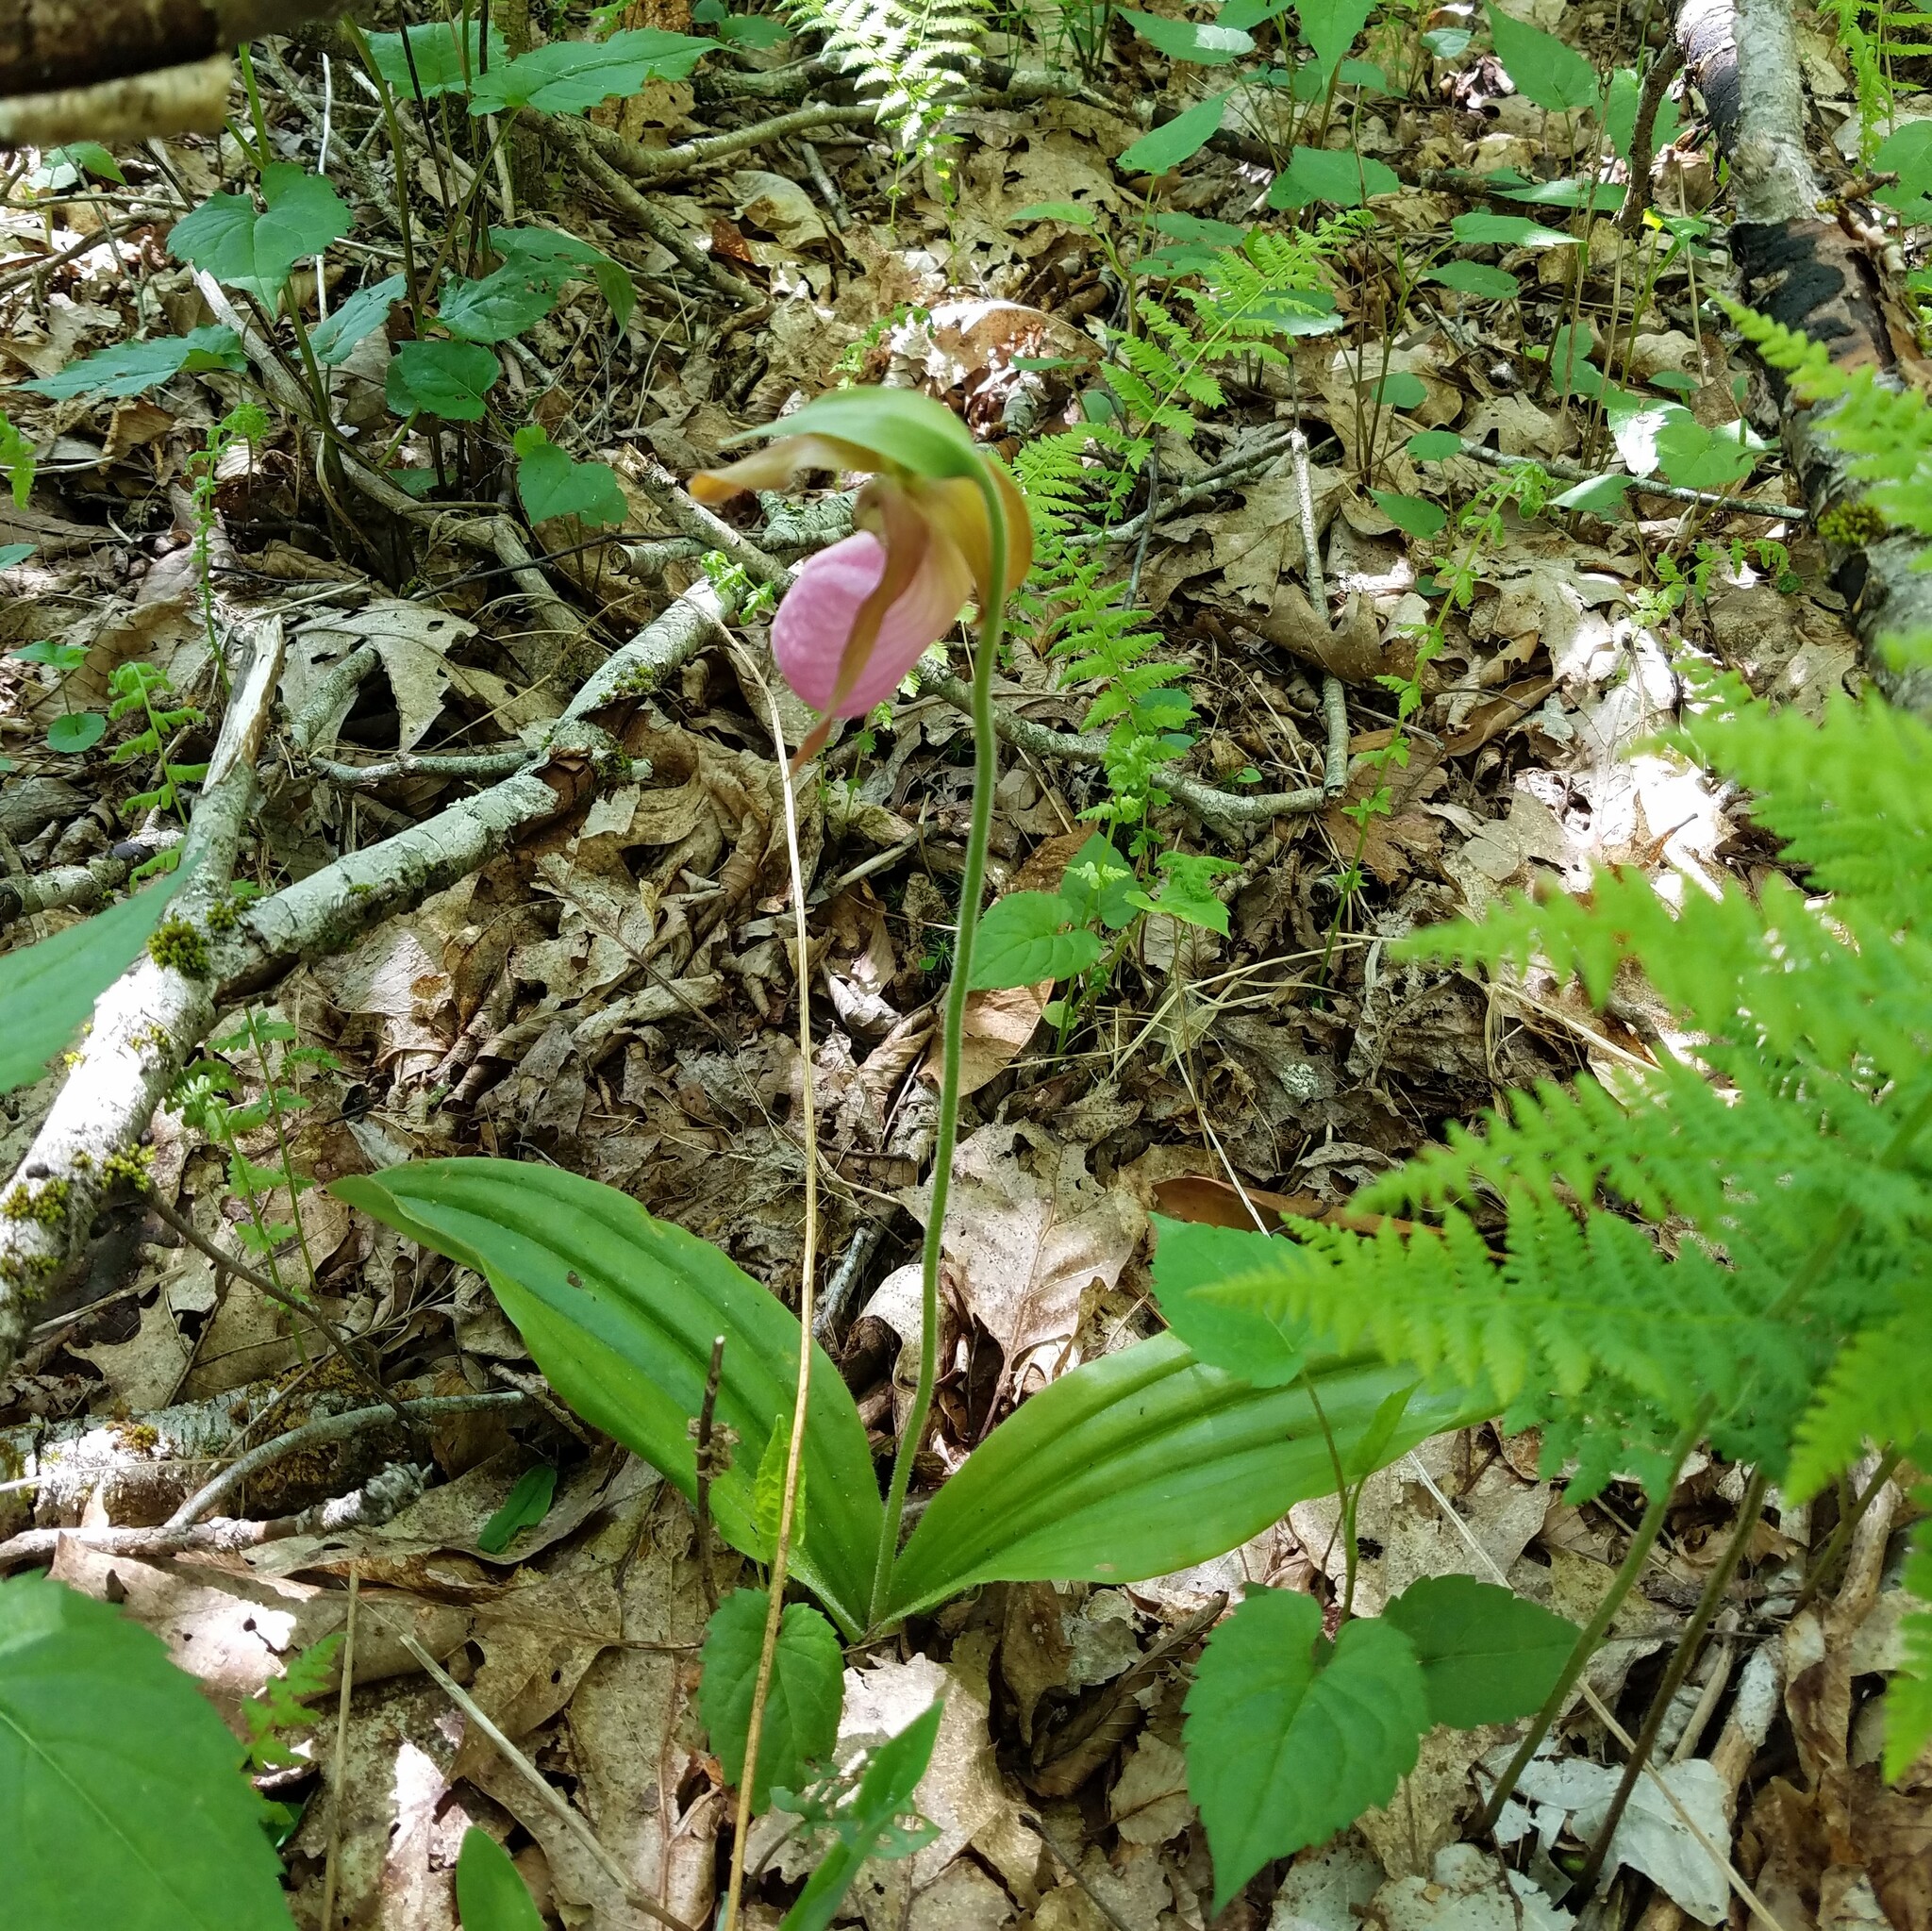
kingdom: Plantae
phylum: Tracheophyta
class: Liliopsida
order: Asparagales
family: Orchidaceae
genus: Cypripedium
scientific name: Cypripedium acaule
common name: Pink lady's-slipper
